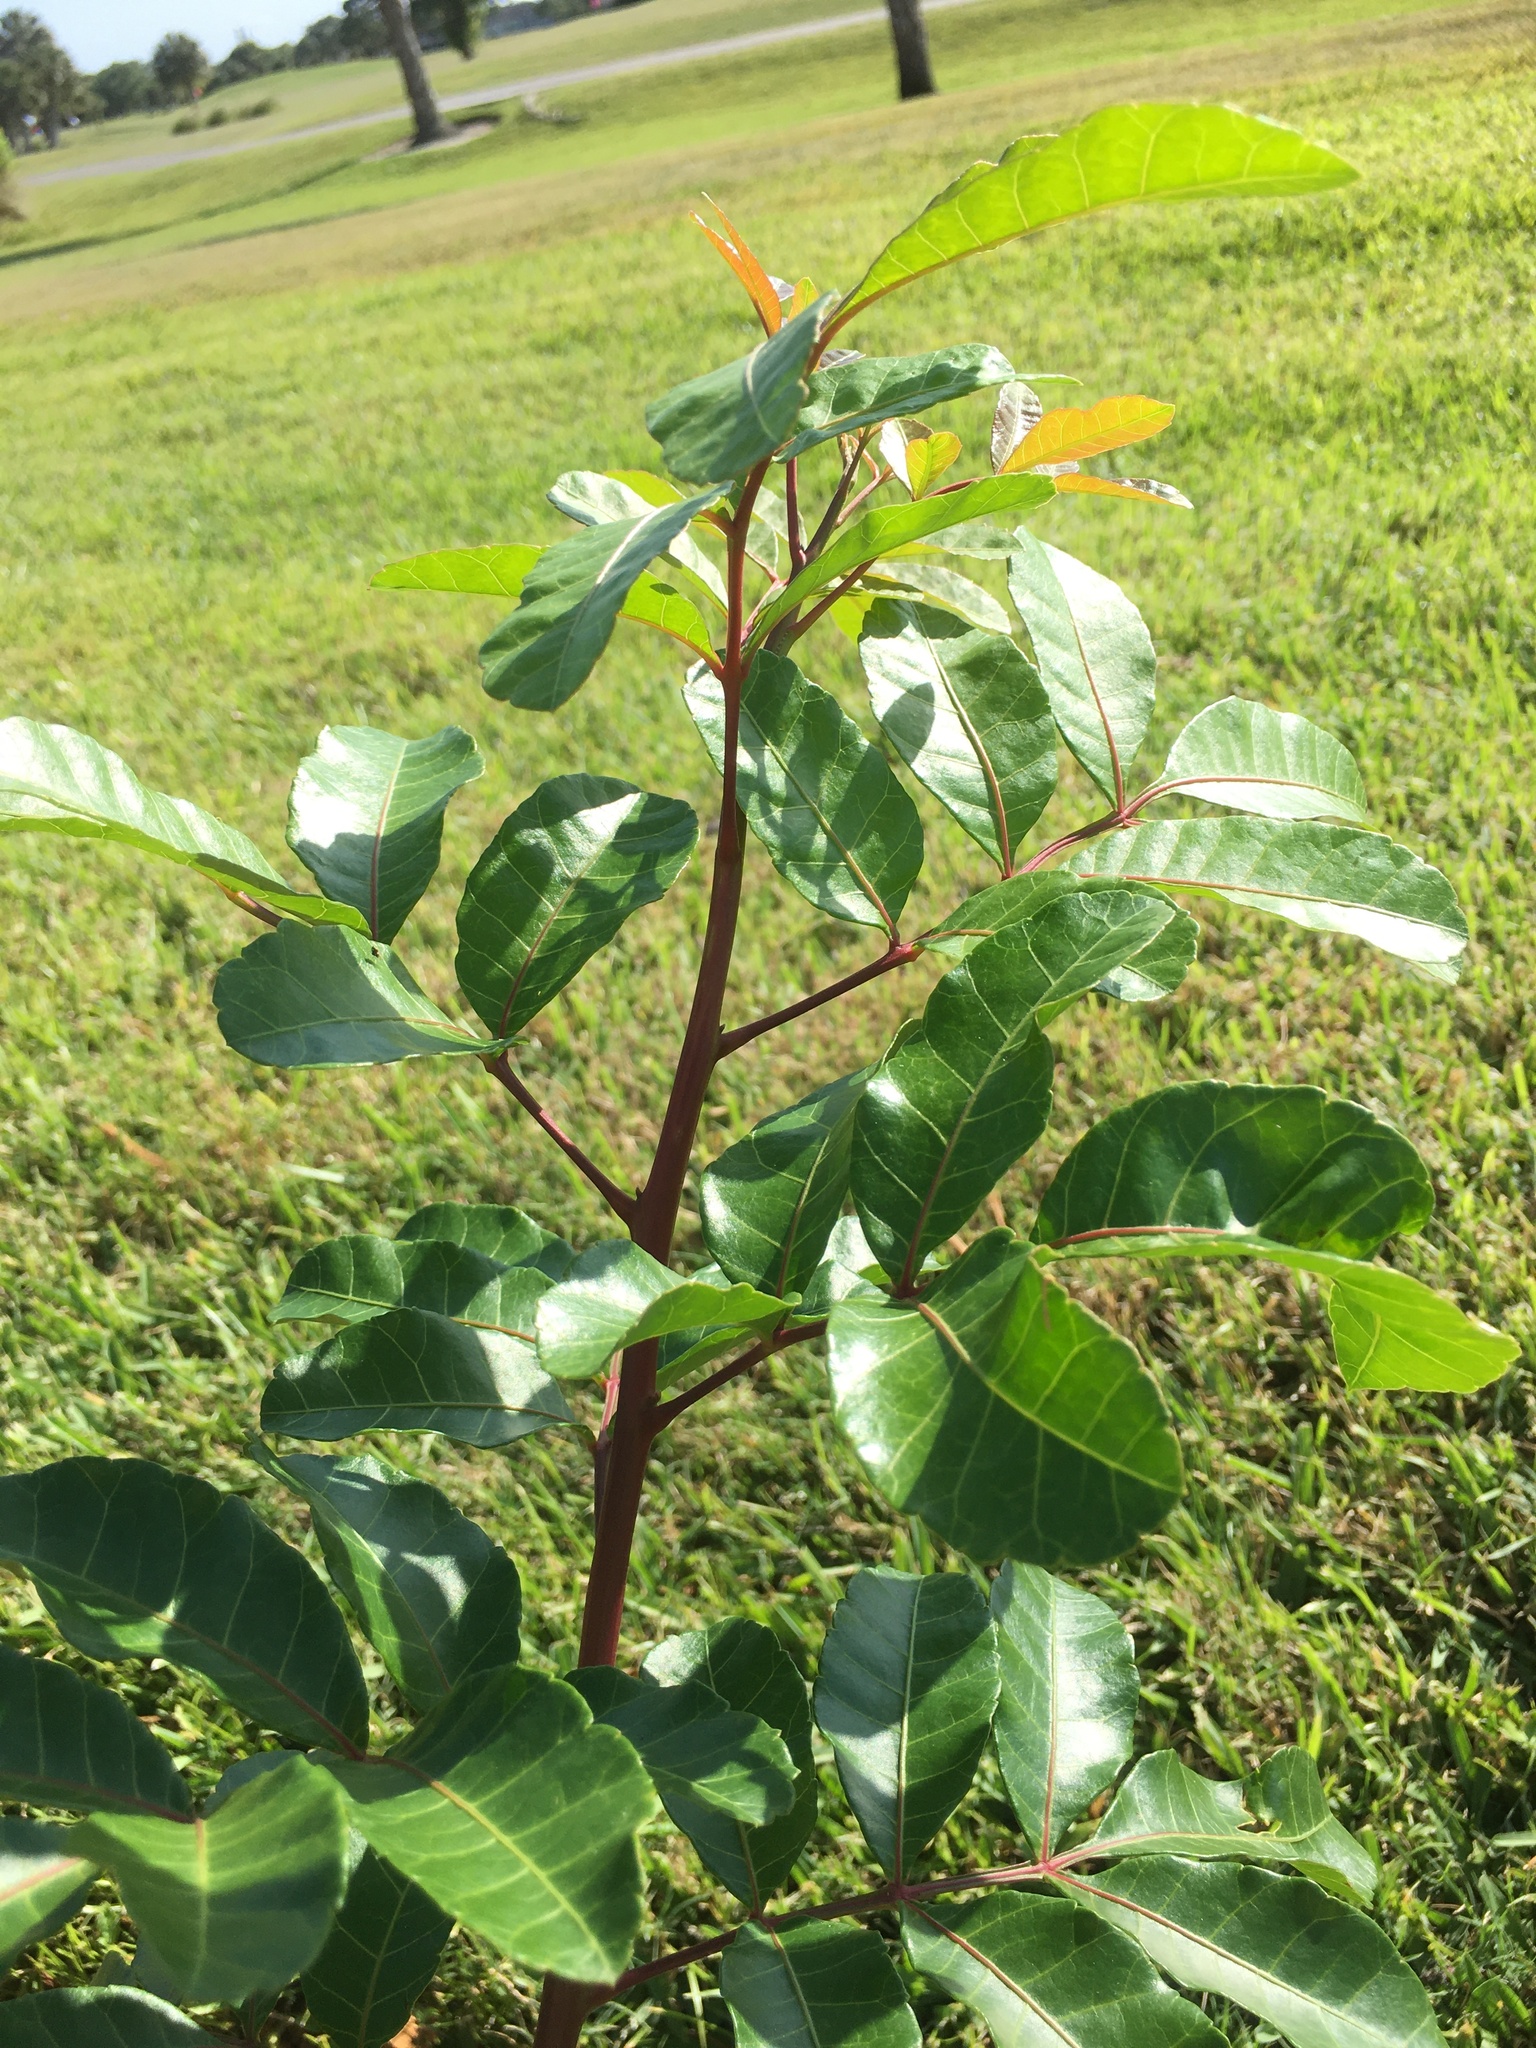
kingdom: Plantae
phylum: Tracheophyta
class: Magnoliopsida
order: Sapindales
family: Anacardiaceae
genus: Schinus
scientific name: Schinus terebinthifolia
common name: Brazilian peppertree
